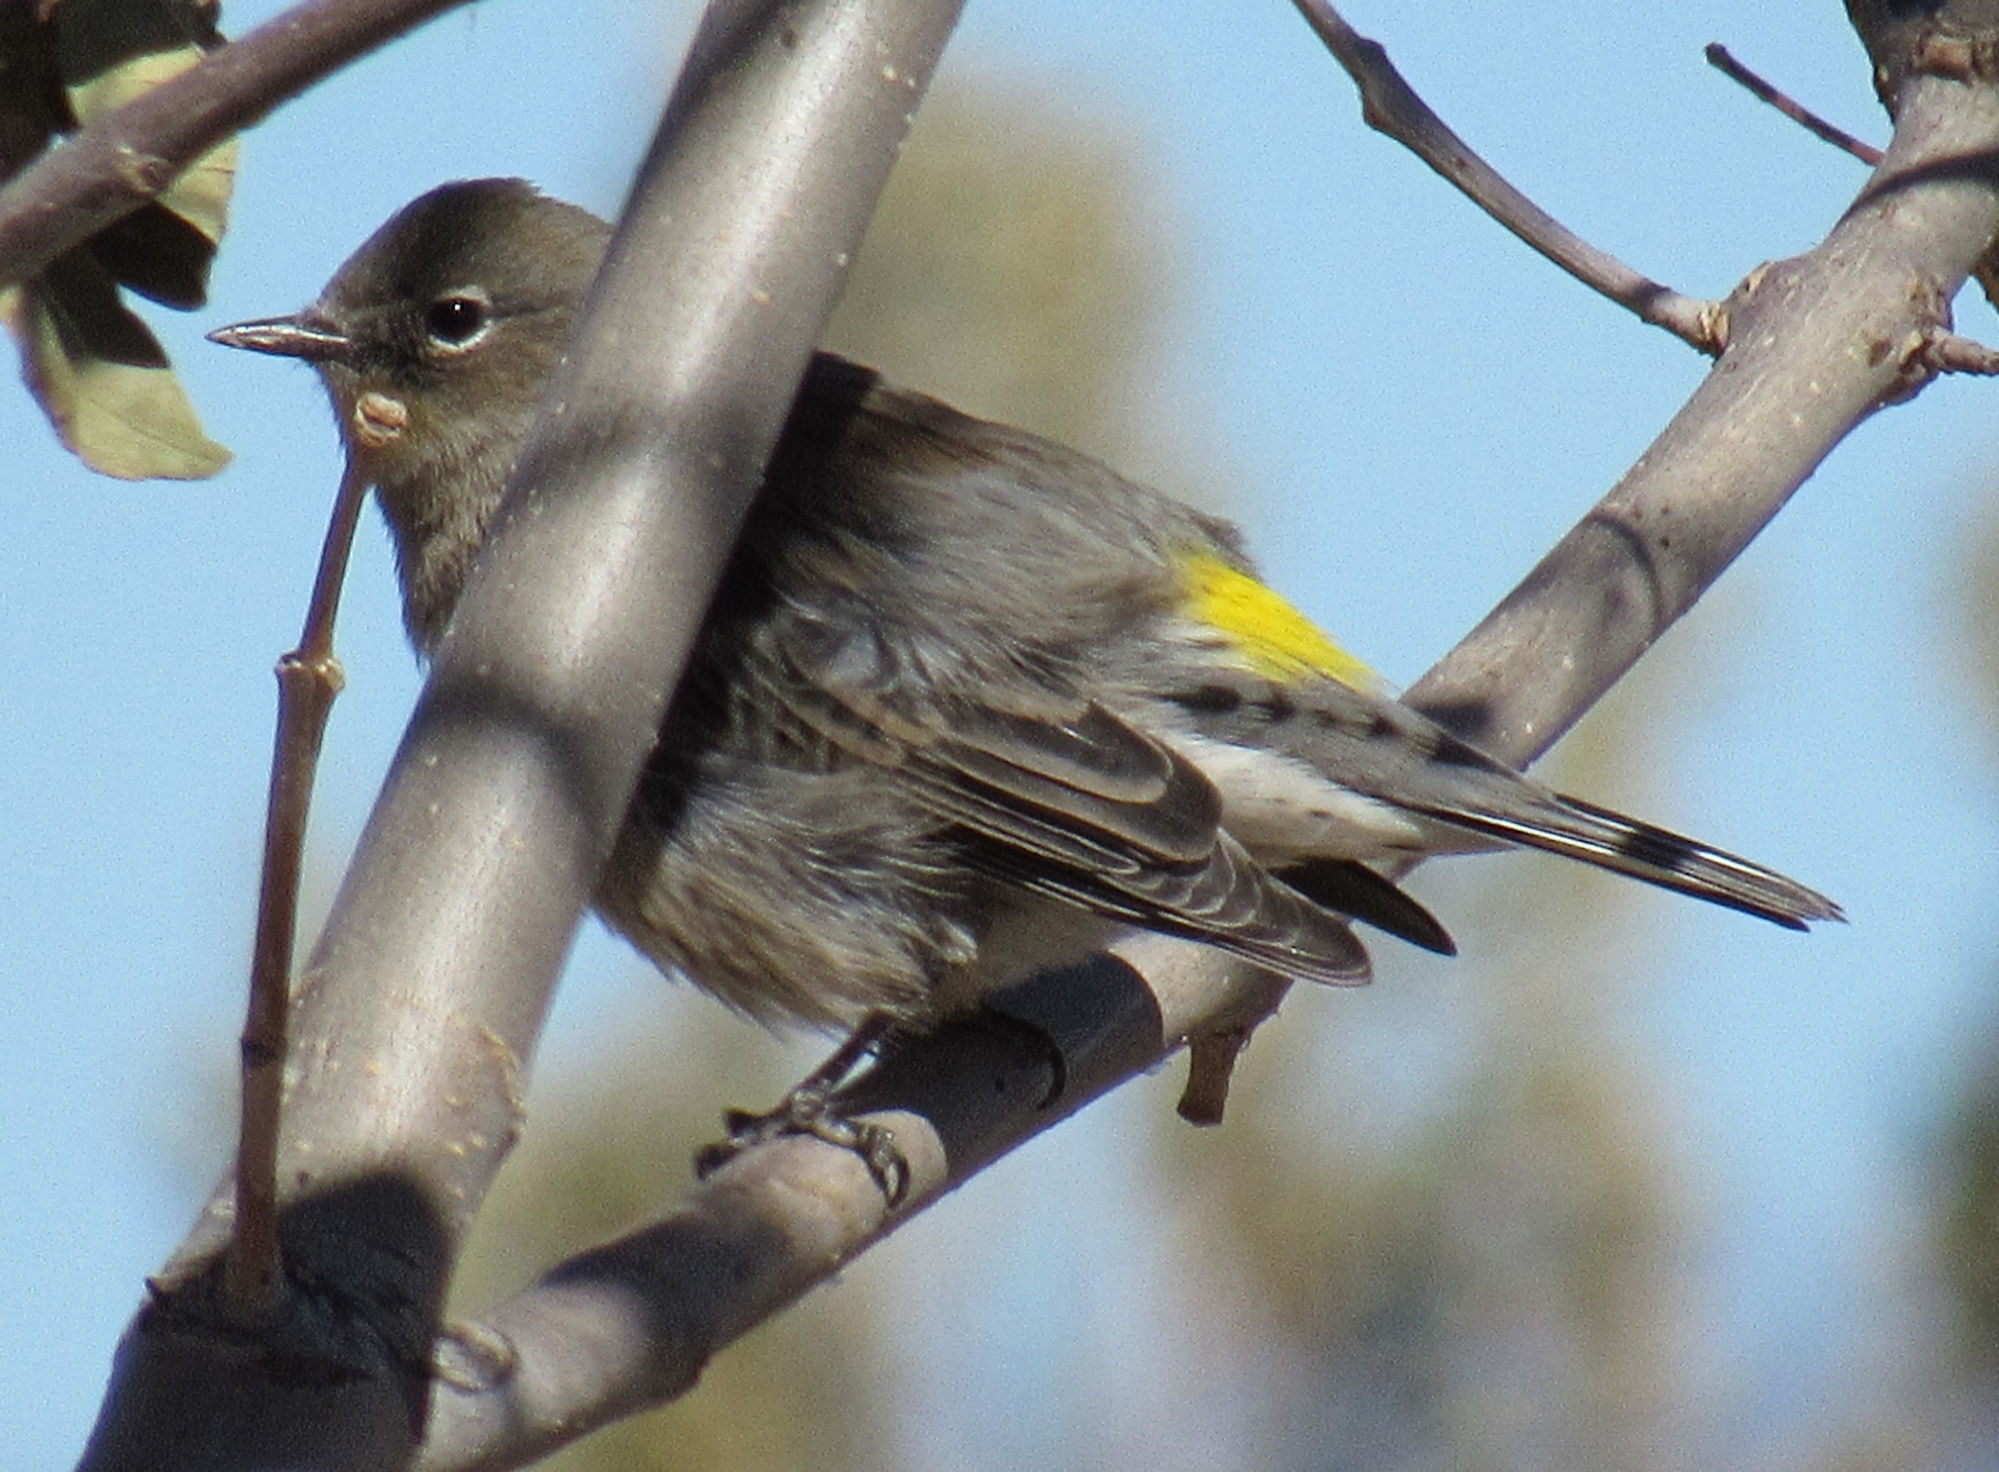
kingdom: Animalia
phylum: Chordata
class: Aves
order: Passeriformes
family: Parulidae
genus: Setophaga
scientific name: Setophaga coronata
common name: Myrtle warbler
